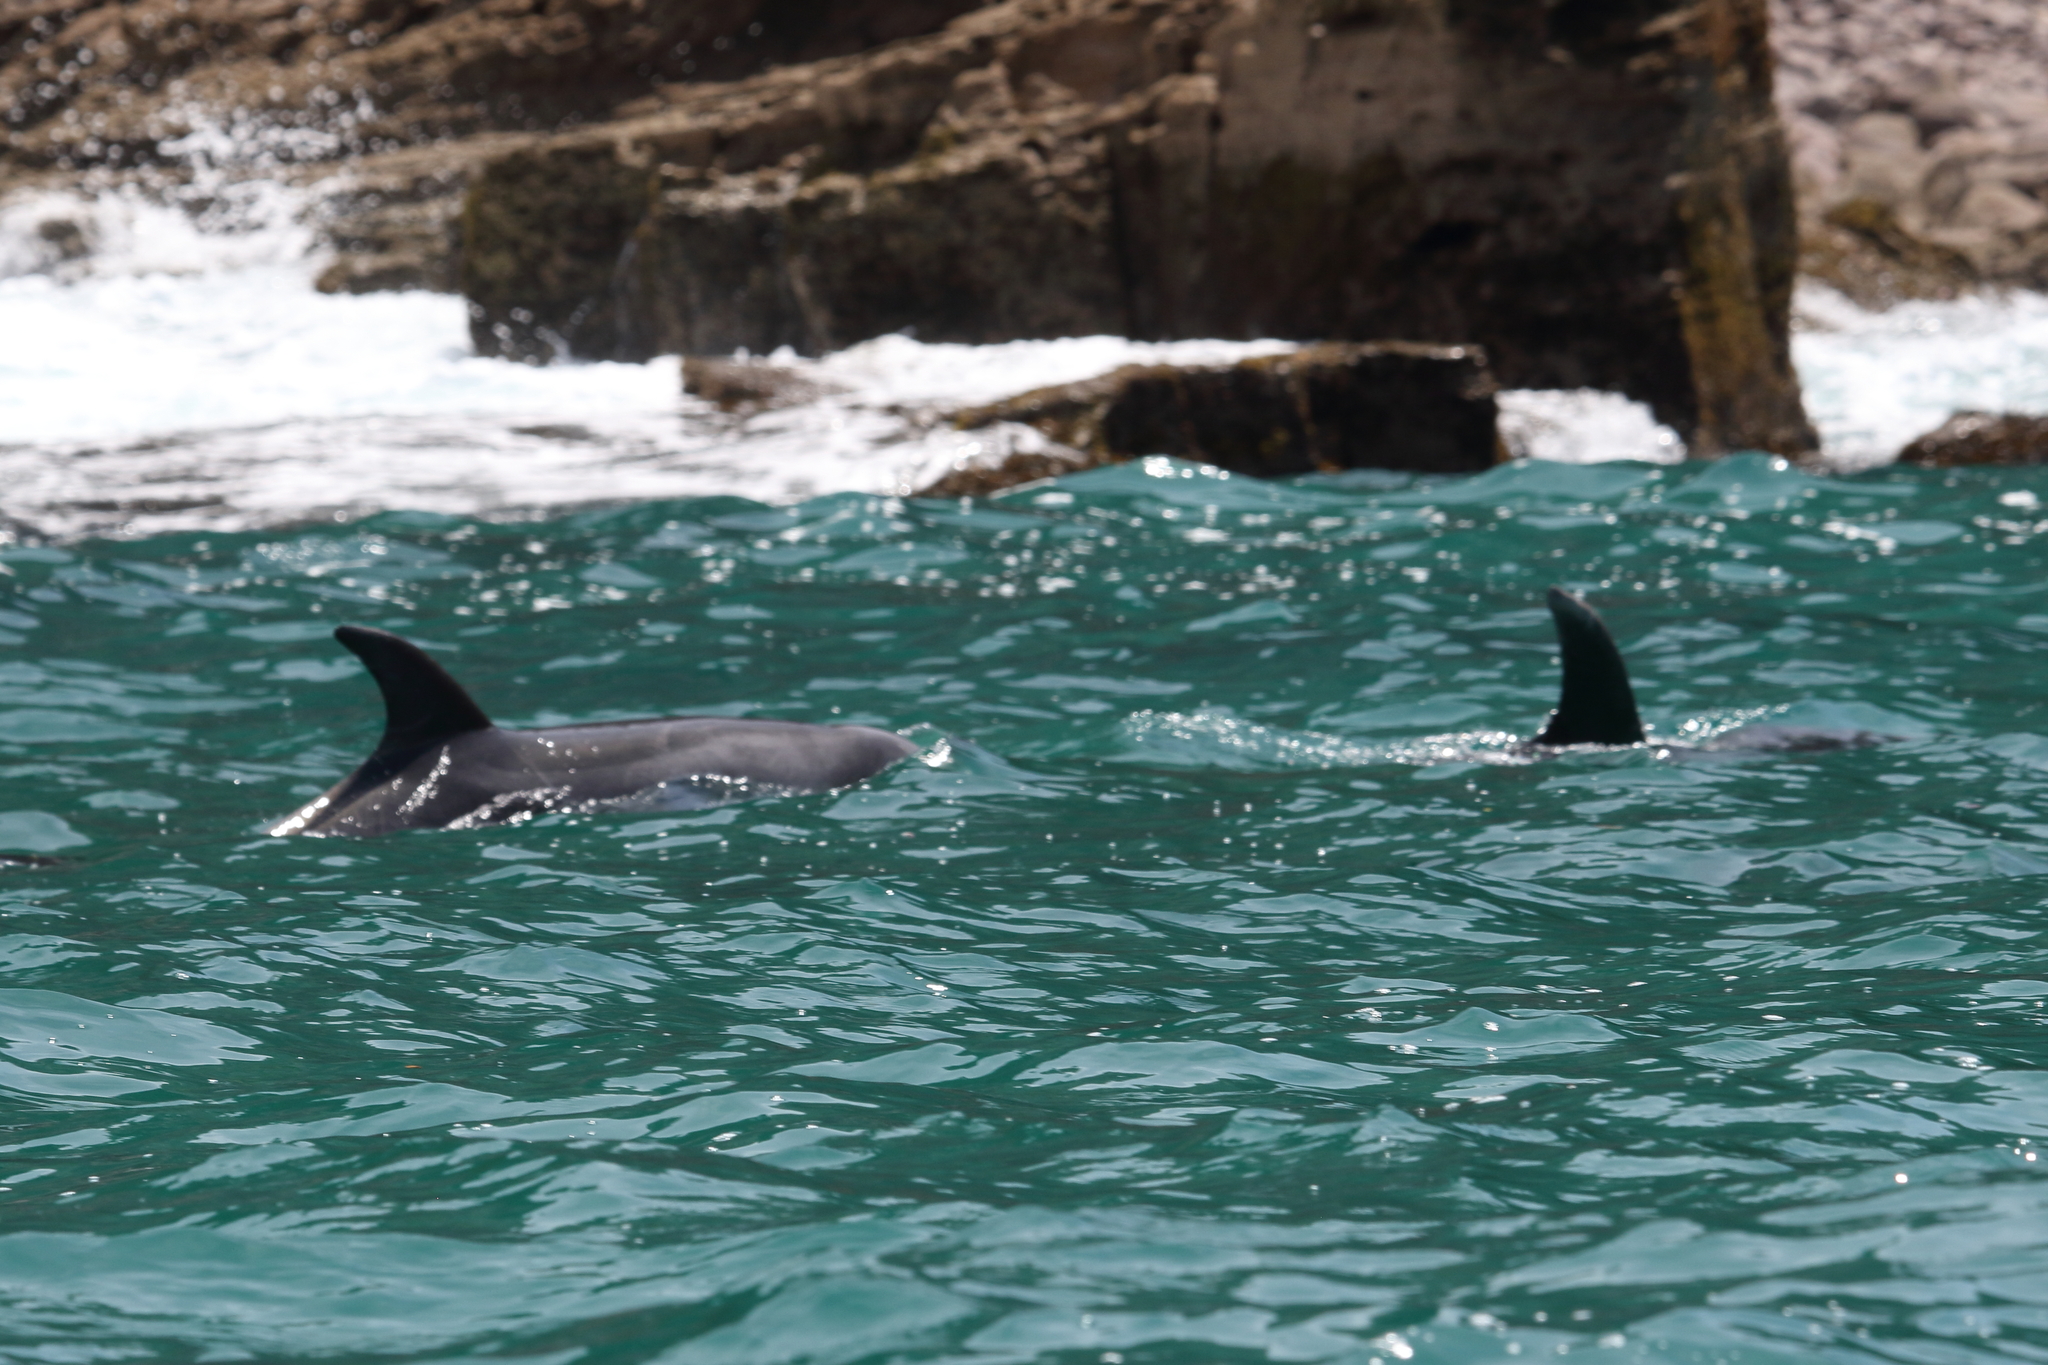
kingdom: Animalia
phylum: Chordata
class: Mammalia
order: Cetacea
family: Delphinidae
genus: Tursiops
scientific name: Tursiops truncatus
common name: Bottlenose dolphin
